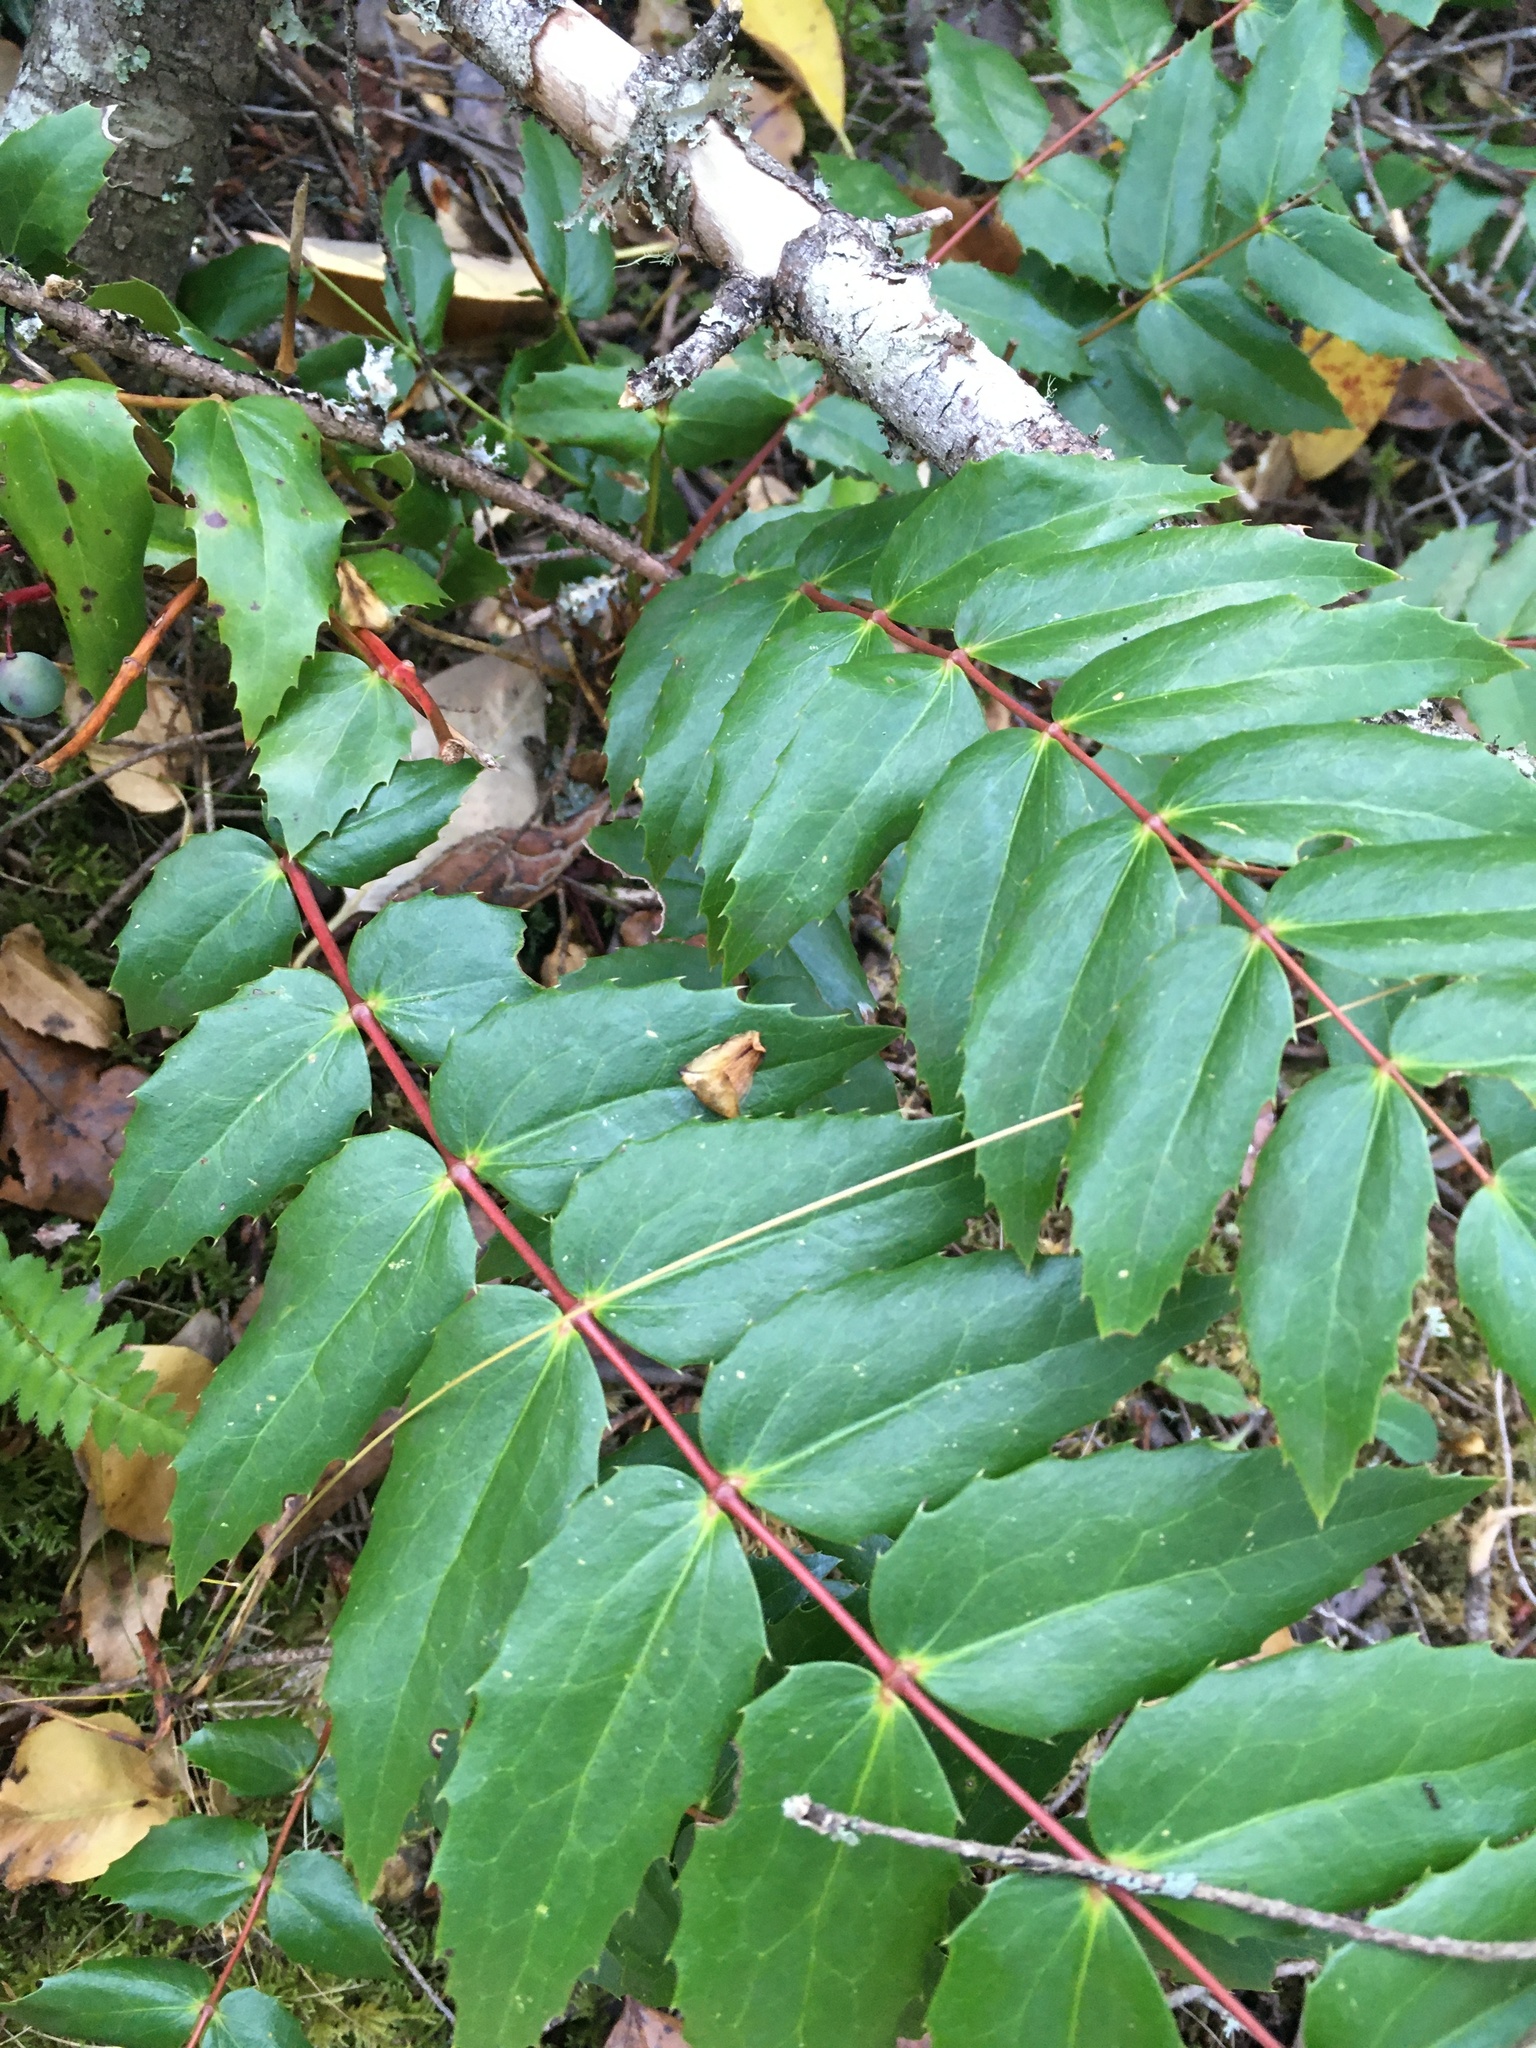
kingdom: Plantae
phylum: Tracheophyta
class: Magnoliopsida
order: Ranunculales
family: Berberidaceae
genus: Mahonia
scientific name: Mahonia nervosa
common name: Cascade oregon-grape
